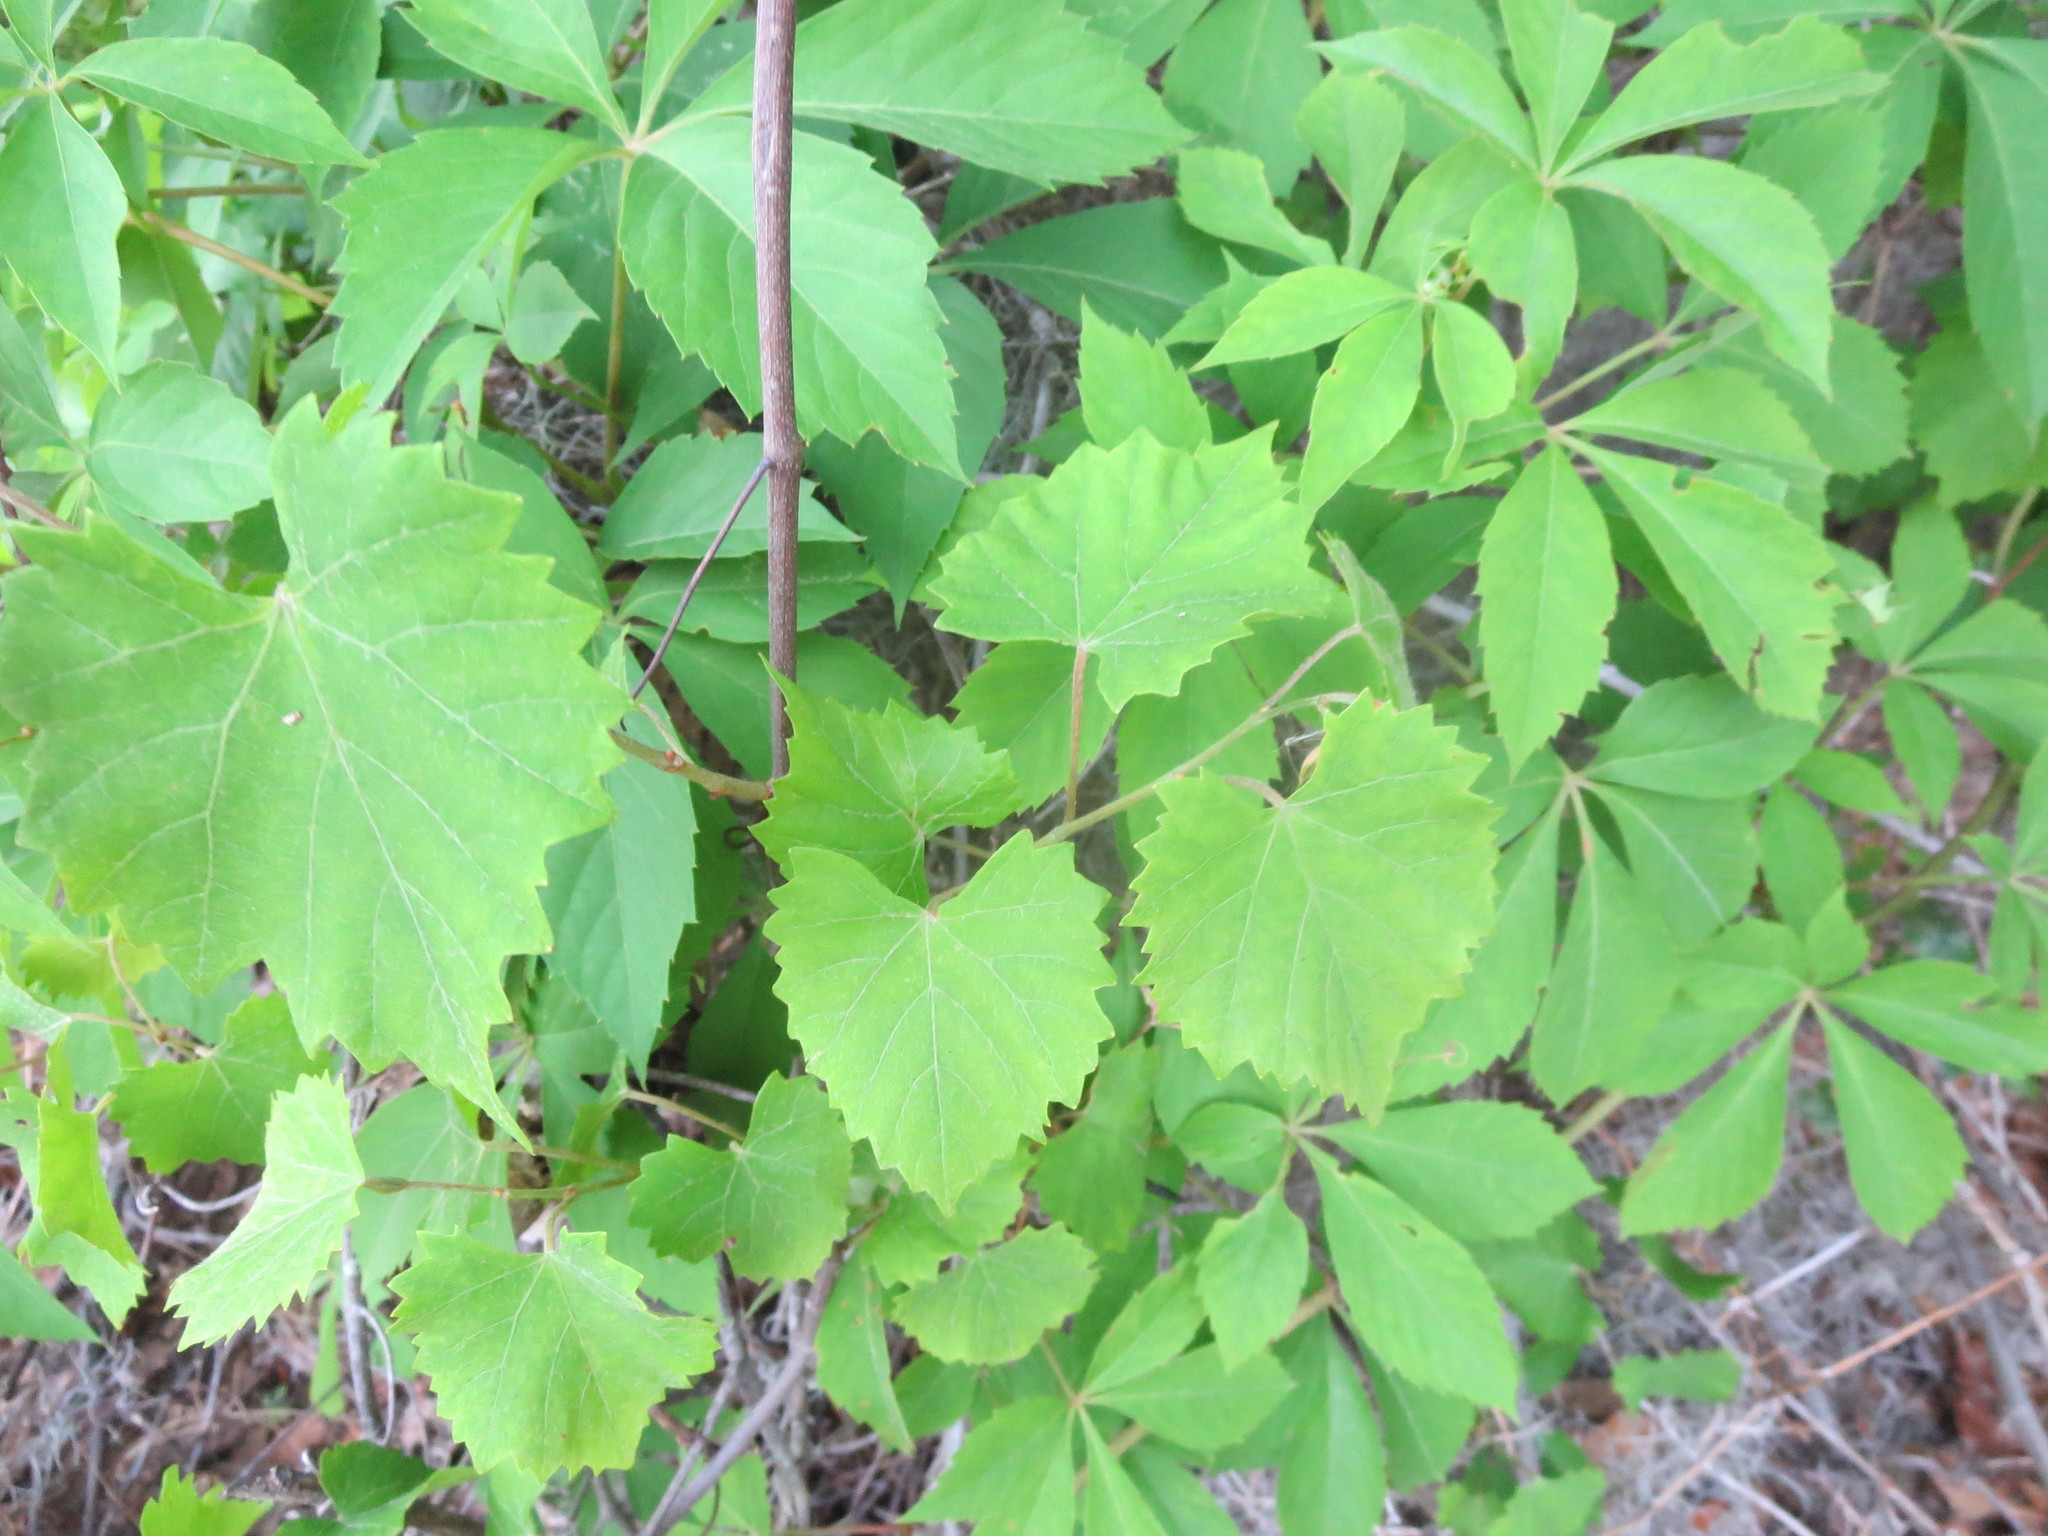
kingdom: Plantae
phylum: Tracheophyta
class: Magnoliopsida
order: Vitales
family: Vitaceae
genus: Vitis
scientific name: Vitis rotundifolia
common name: Muscadine grape
